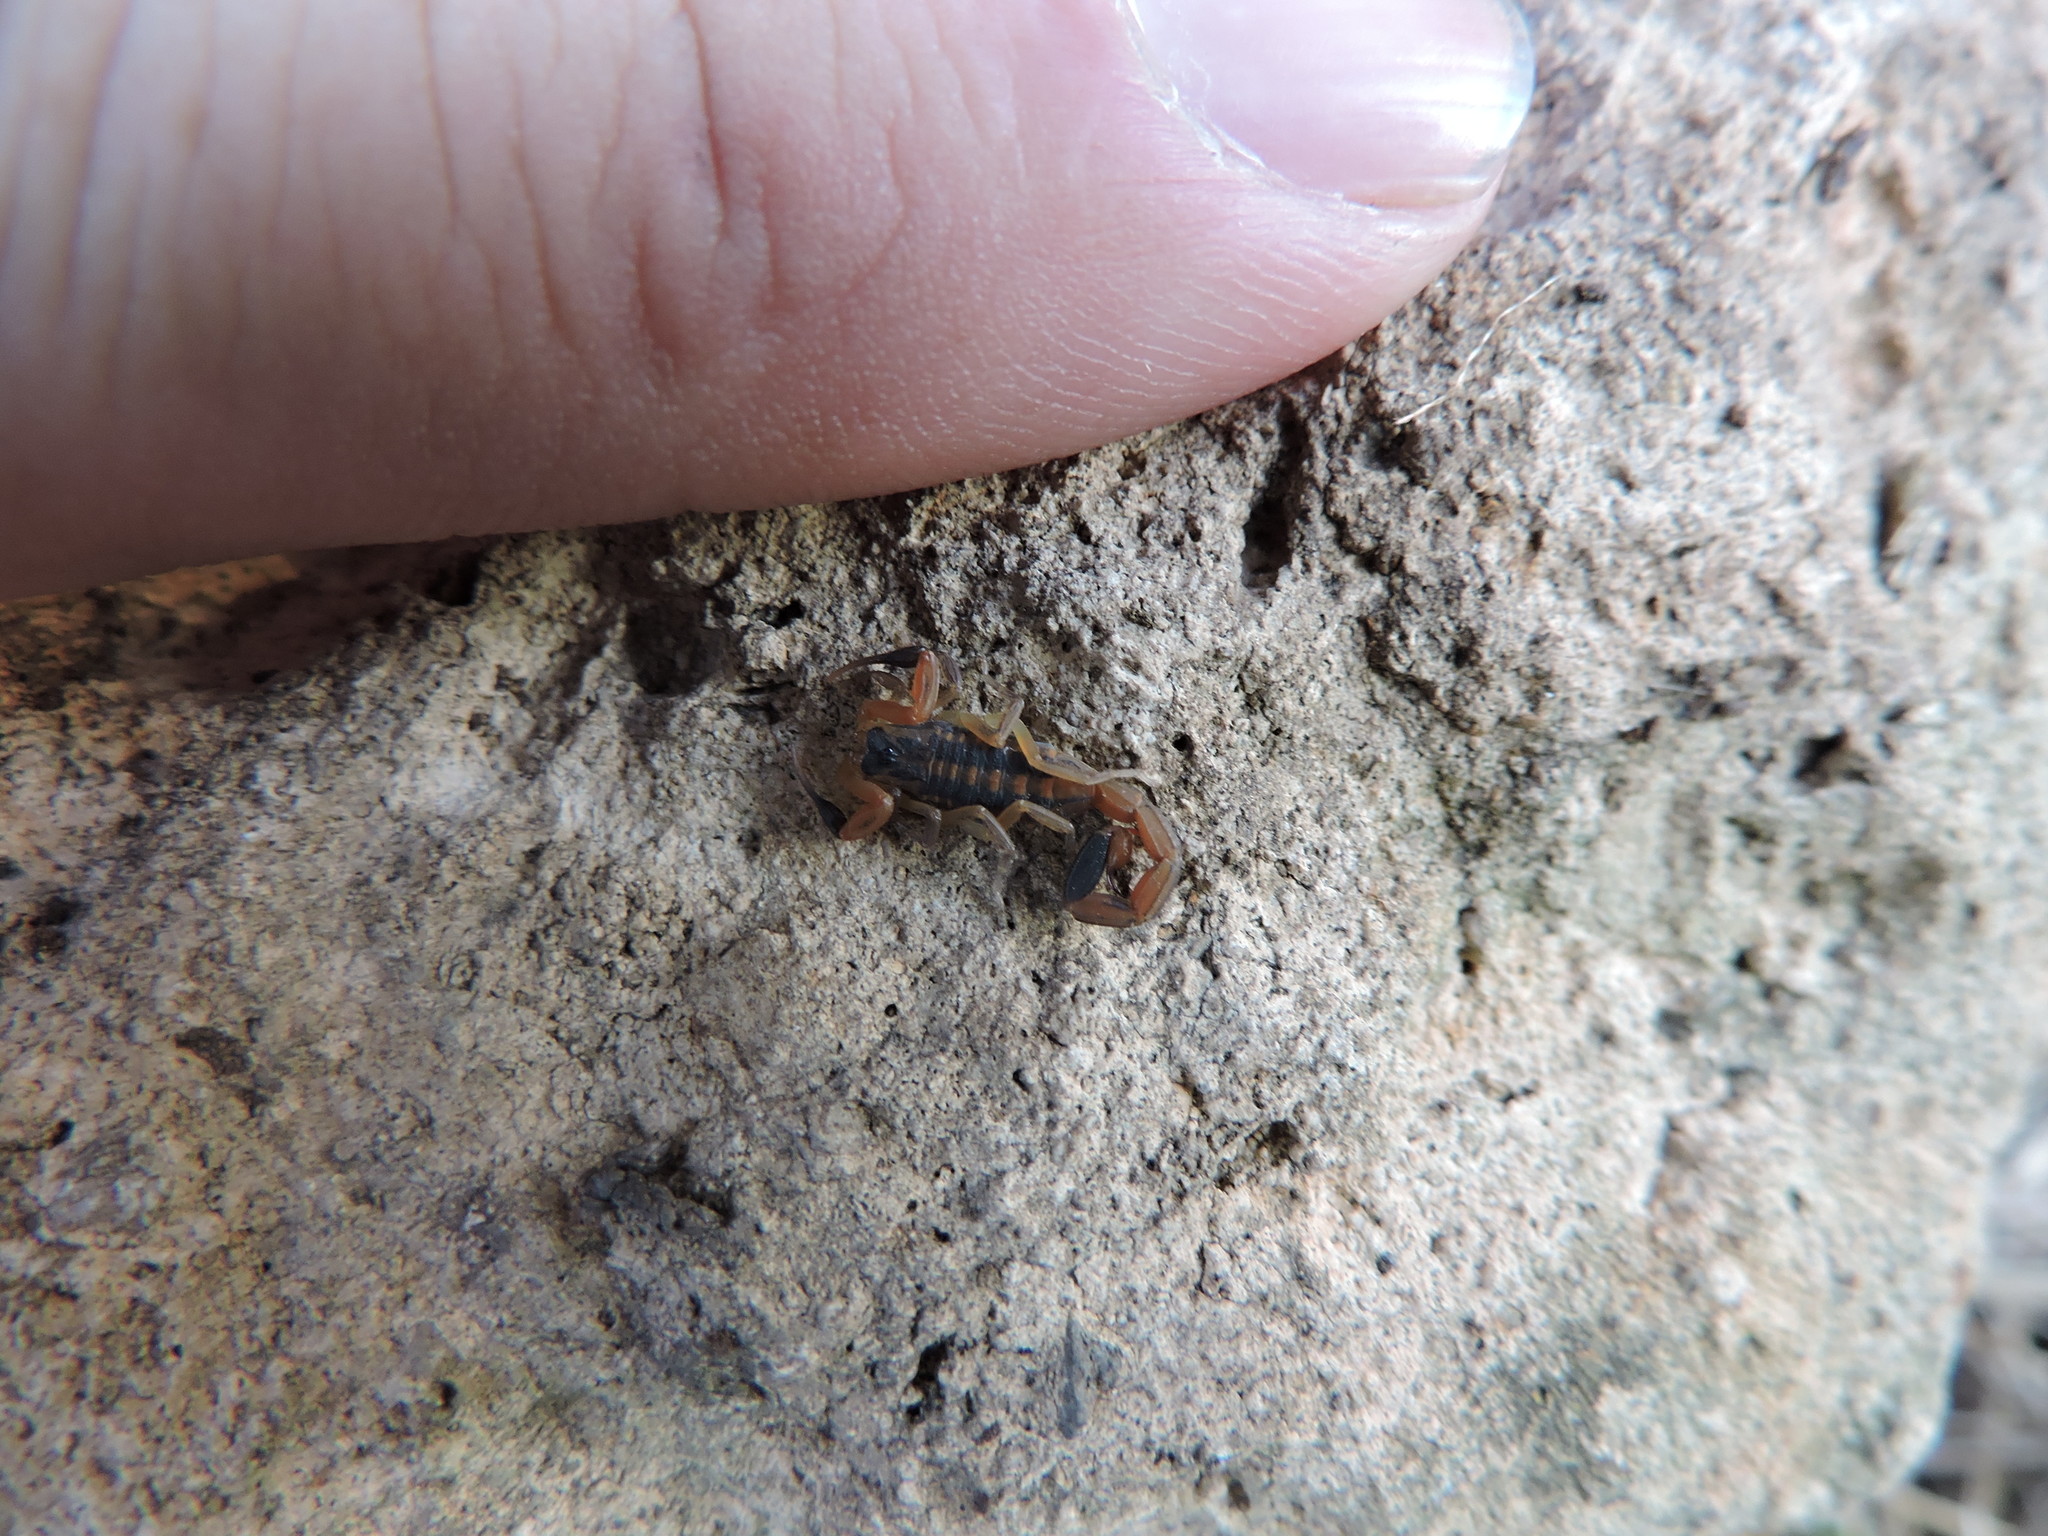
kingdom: Animalia
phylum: Arthropoda
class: Arachnida
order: Scorpiones
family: Buthidae
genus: Centruroides
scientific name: Centruroides vittatus
